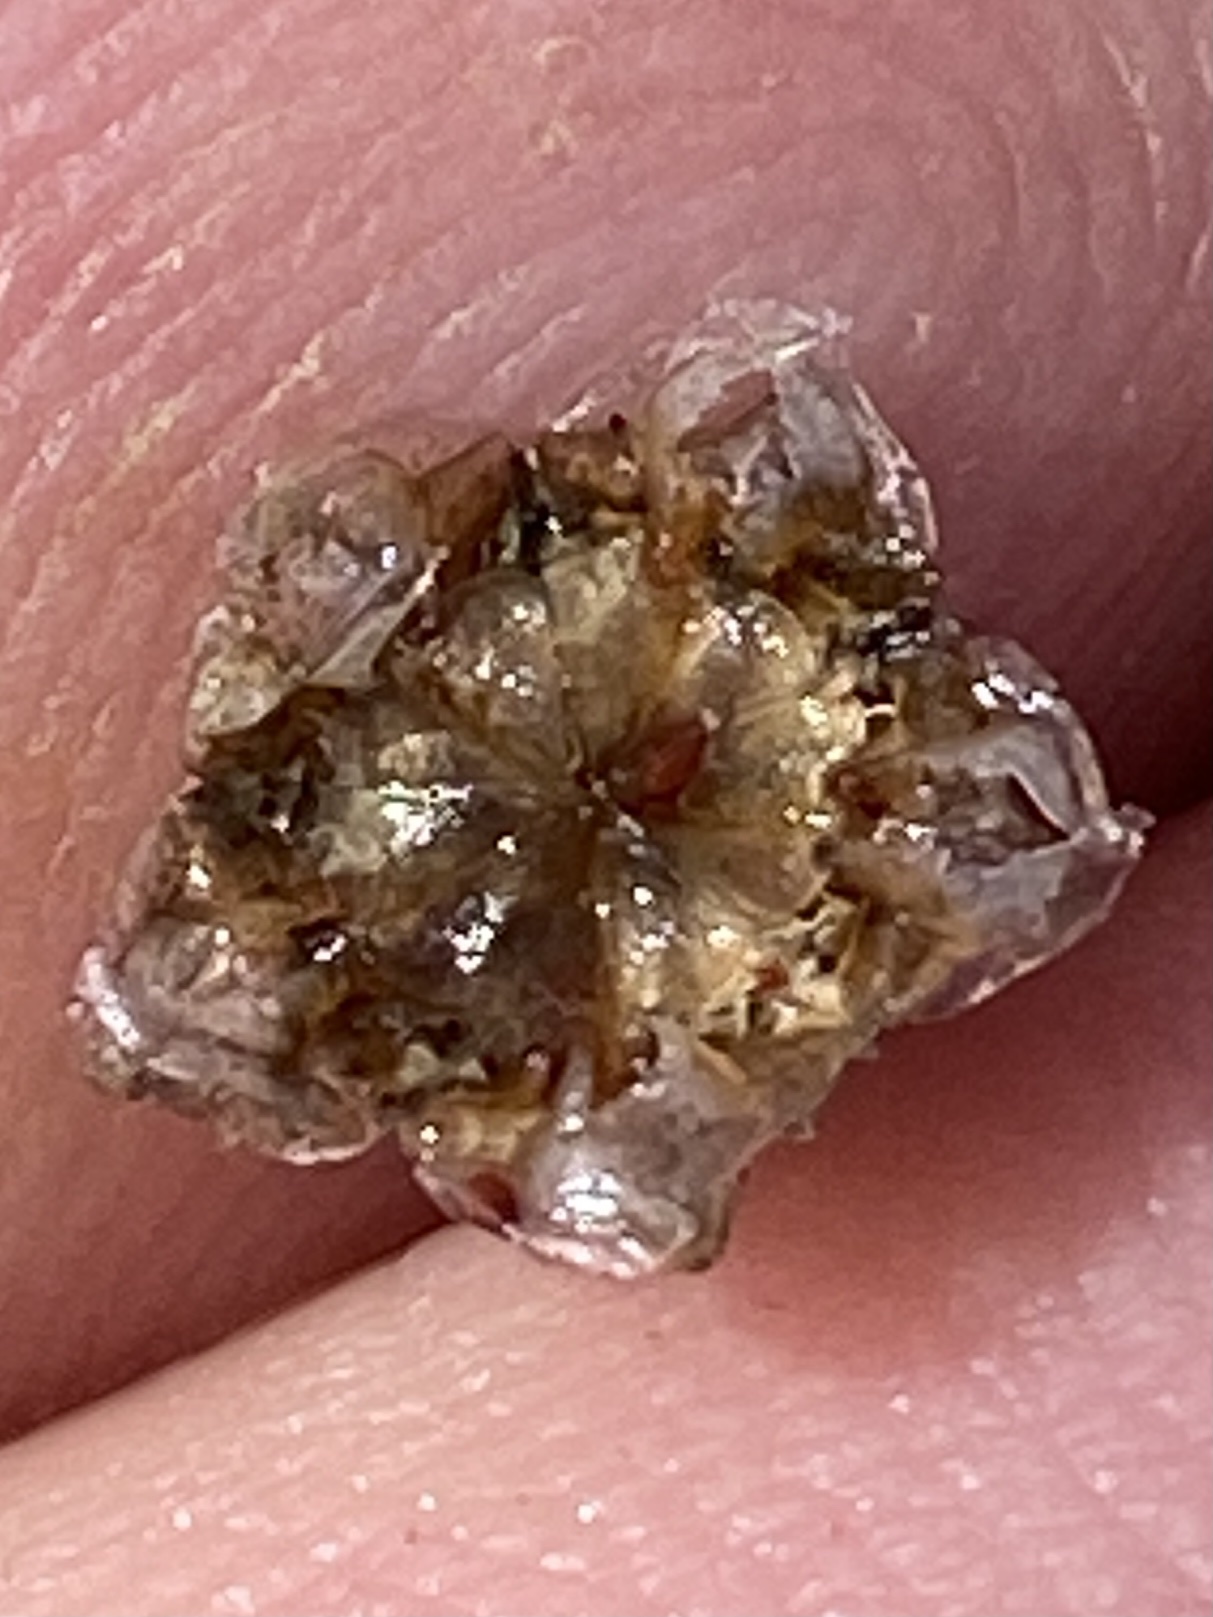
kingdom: Plantae
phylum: Tracheophyta
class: Magnoliopsida
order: Caryophyllales
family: Aizoaceae
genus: Drosanthemum
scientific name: Drosanthemum hispidum
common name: Hairy dewflower
